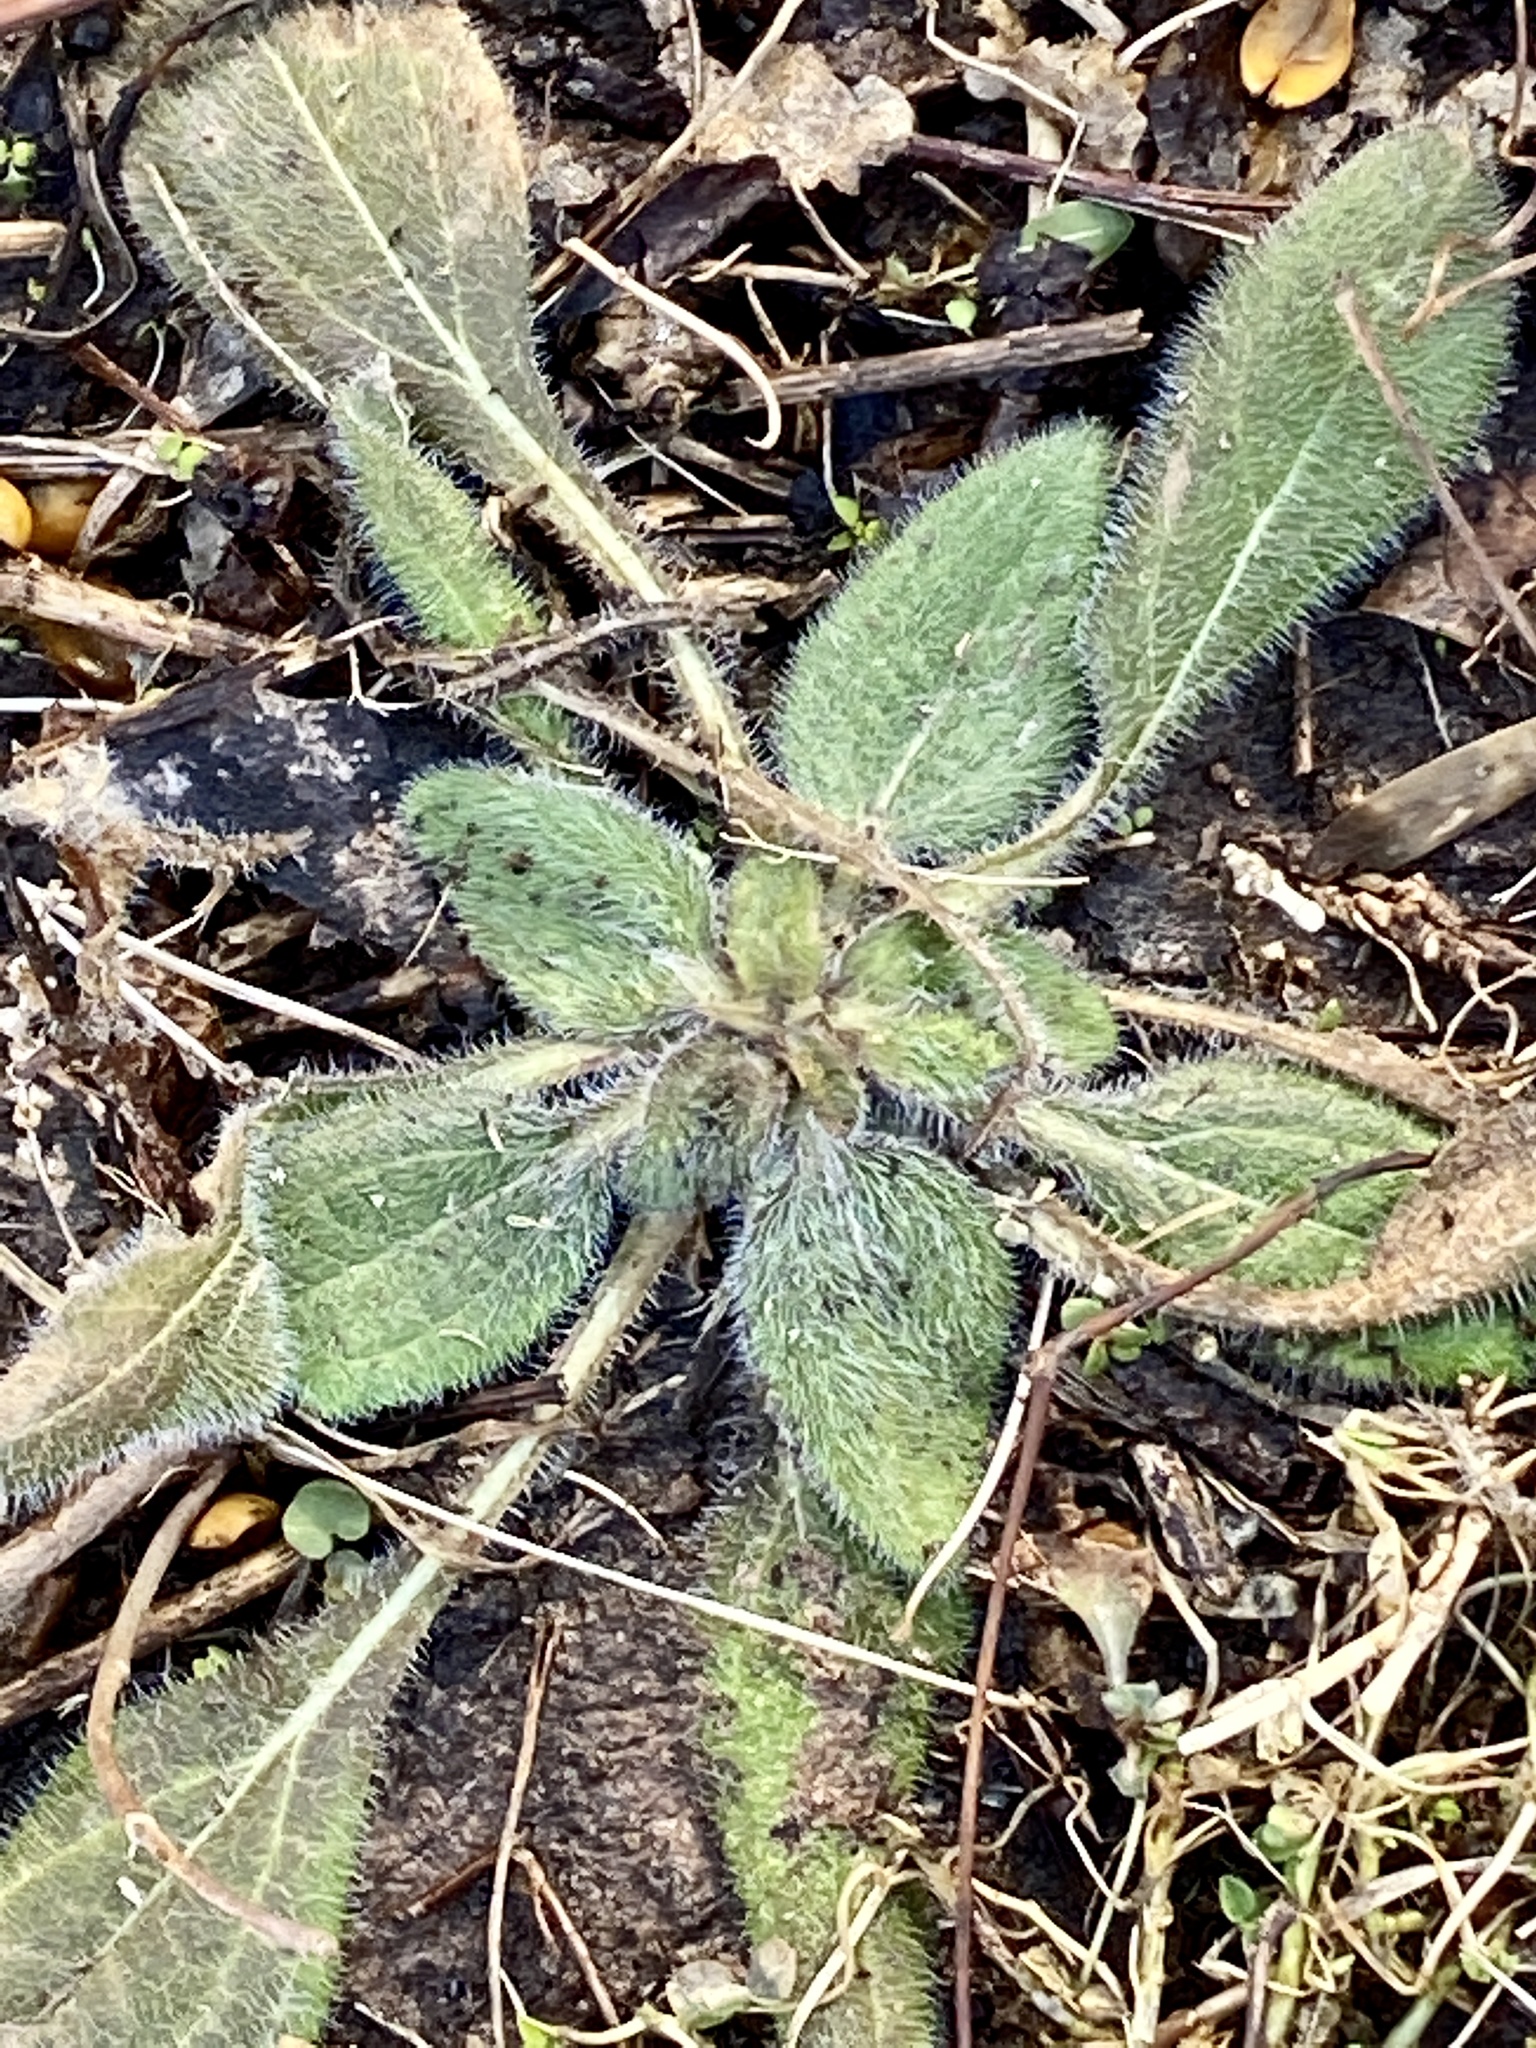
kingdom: Plantae
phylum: Tracheophyta
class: Magnoliopsida
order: Asterales
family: Asteraceae
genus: Rudbeckia
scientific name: Rudbeckia hirta
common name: Black-eyed-susan
